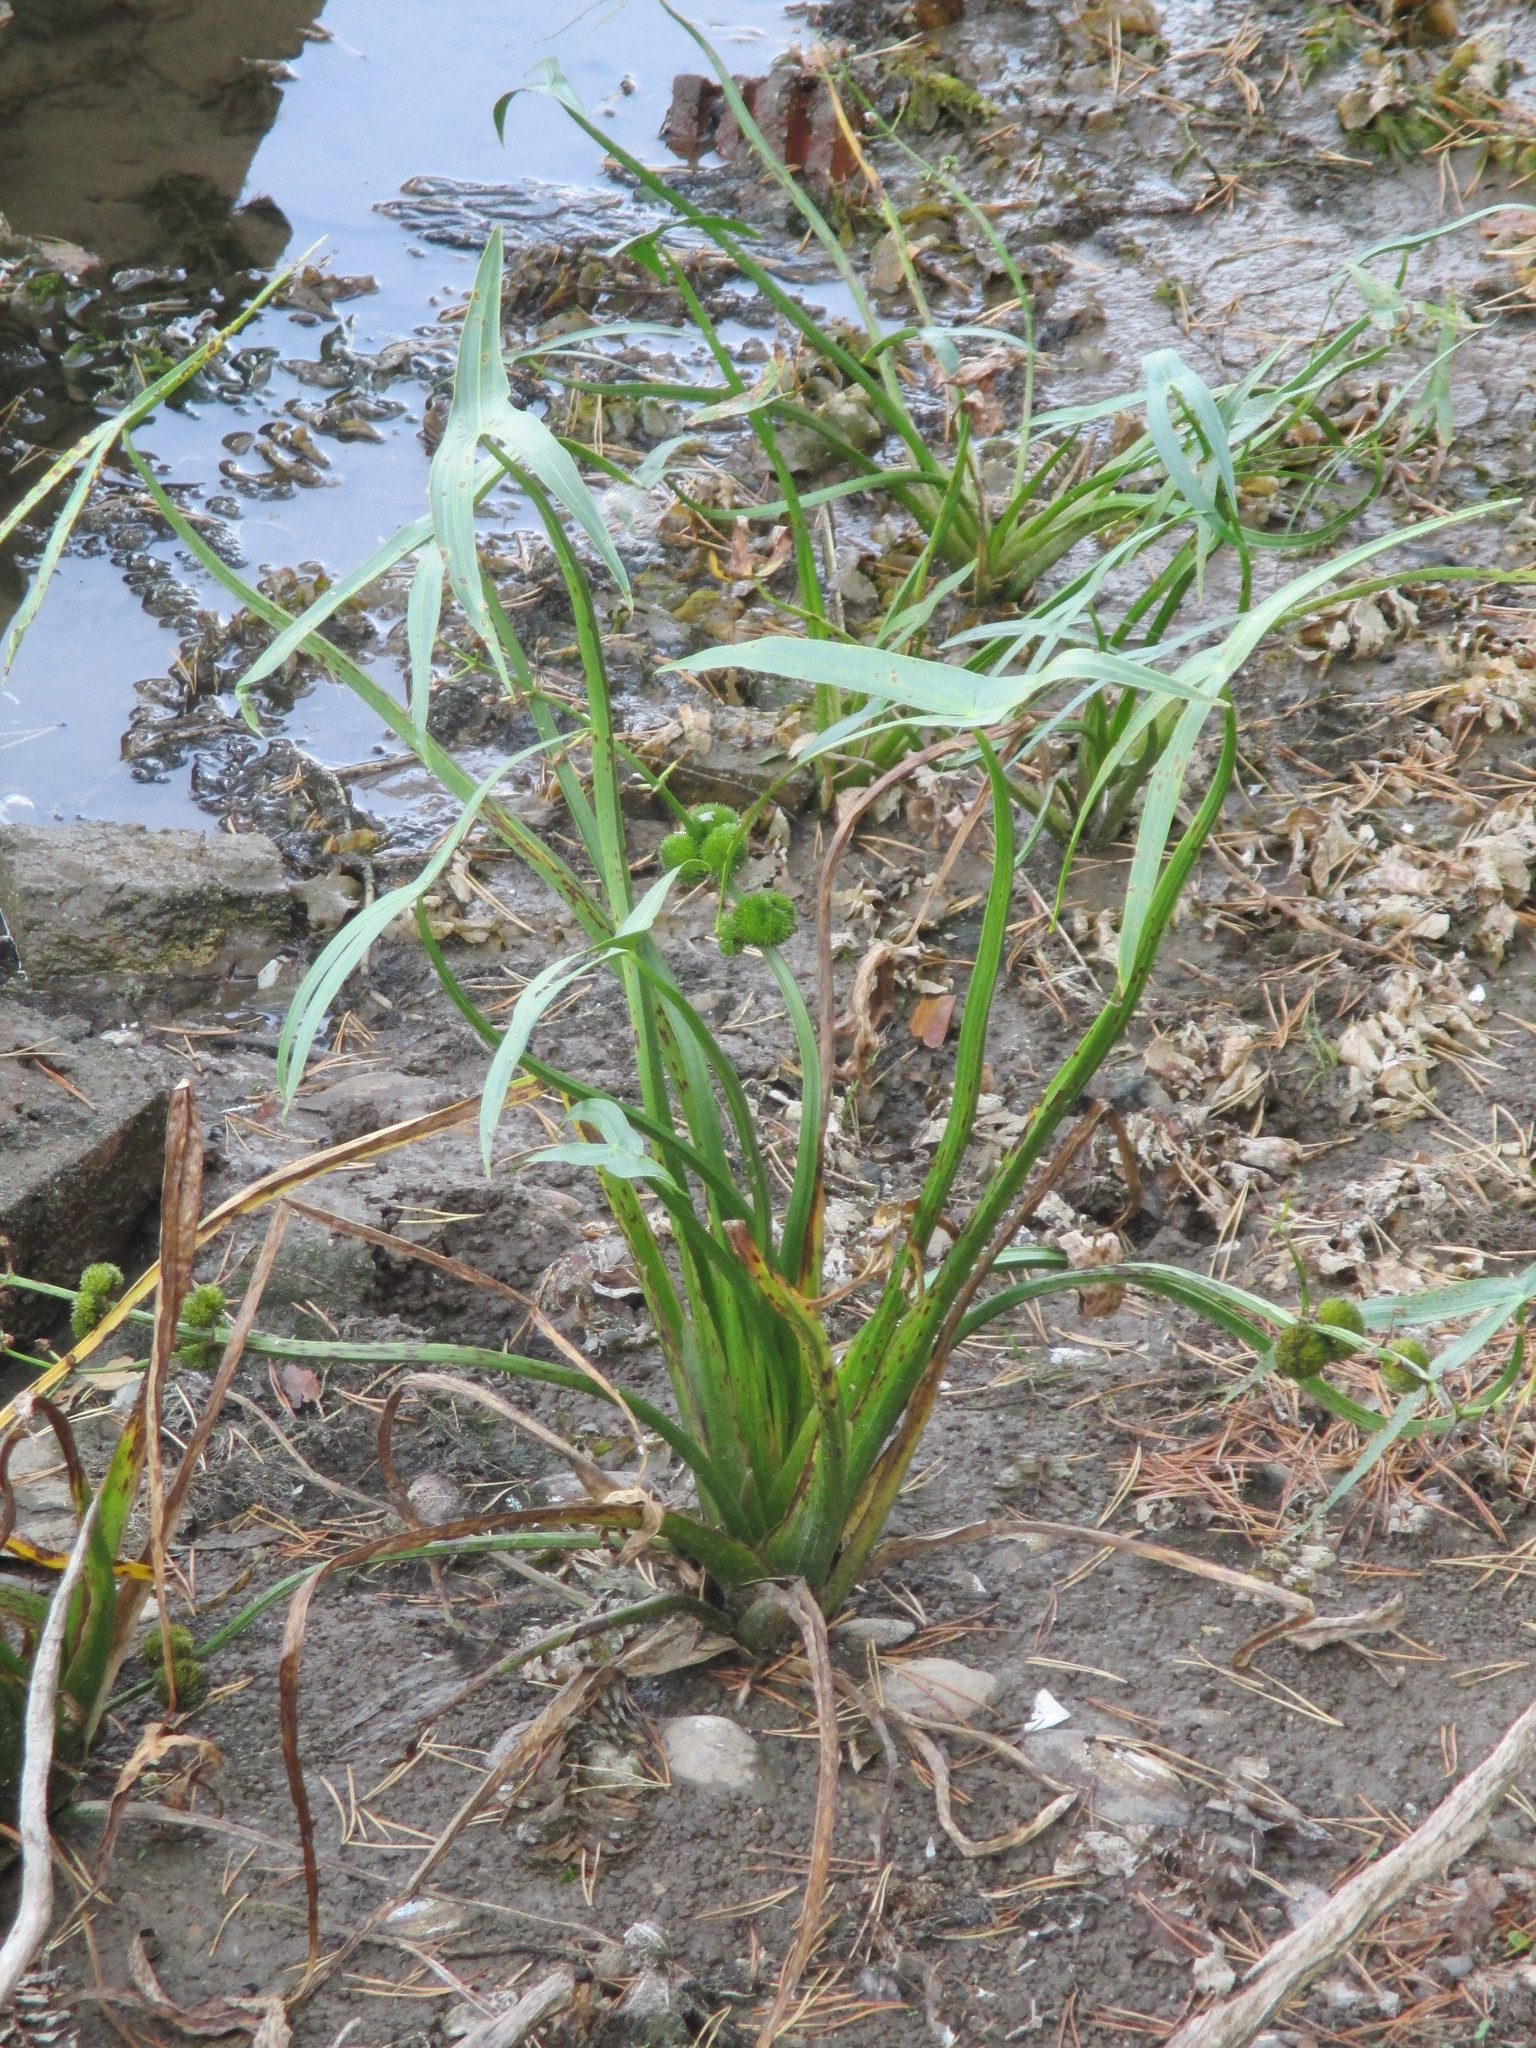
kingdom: Plantae
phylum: Tracheophyta
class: Liliopsida
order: Alismatales
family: Alismataceae
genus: Sagittaria
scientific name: Sagittaria sagittifolia
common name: Arrowhead
